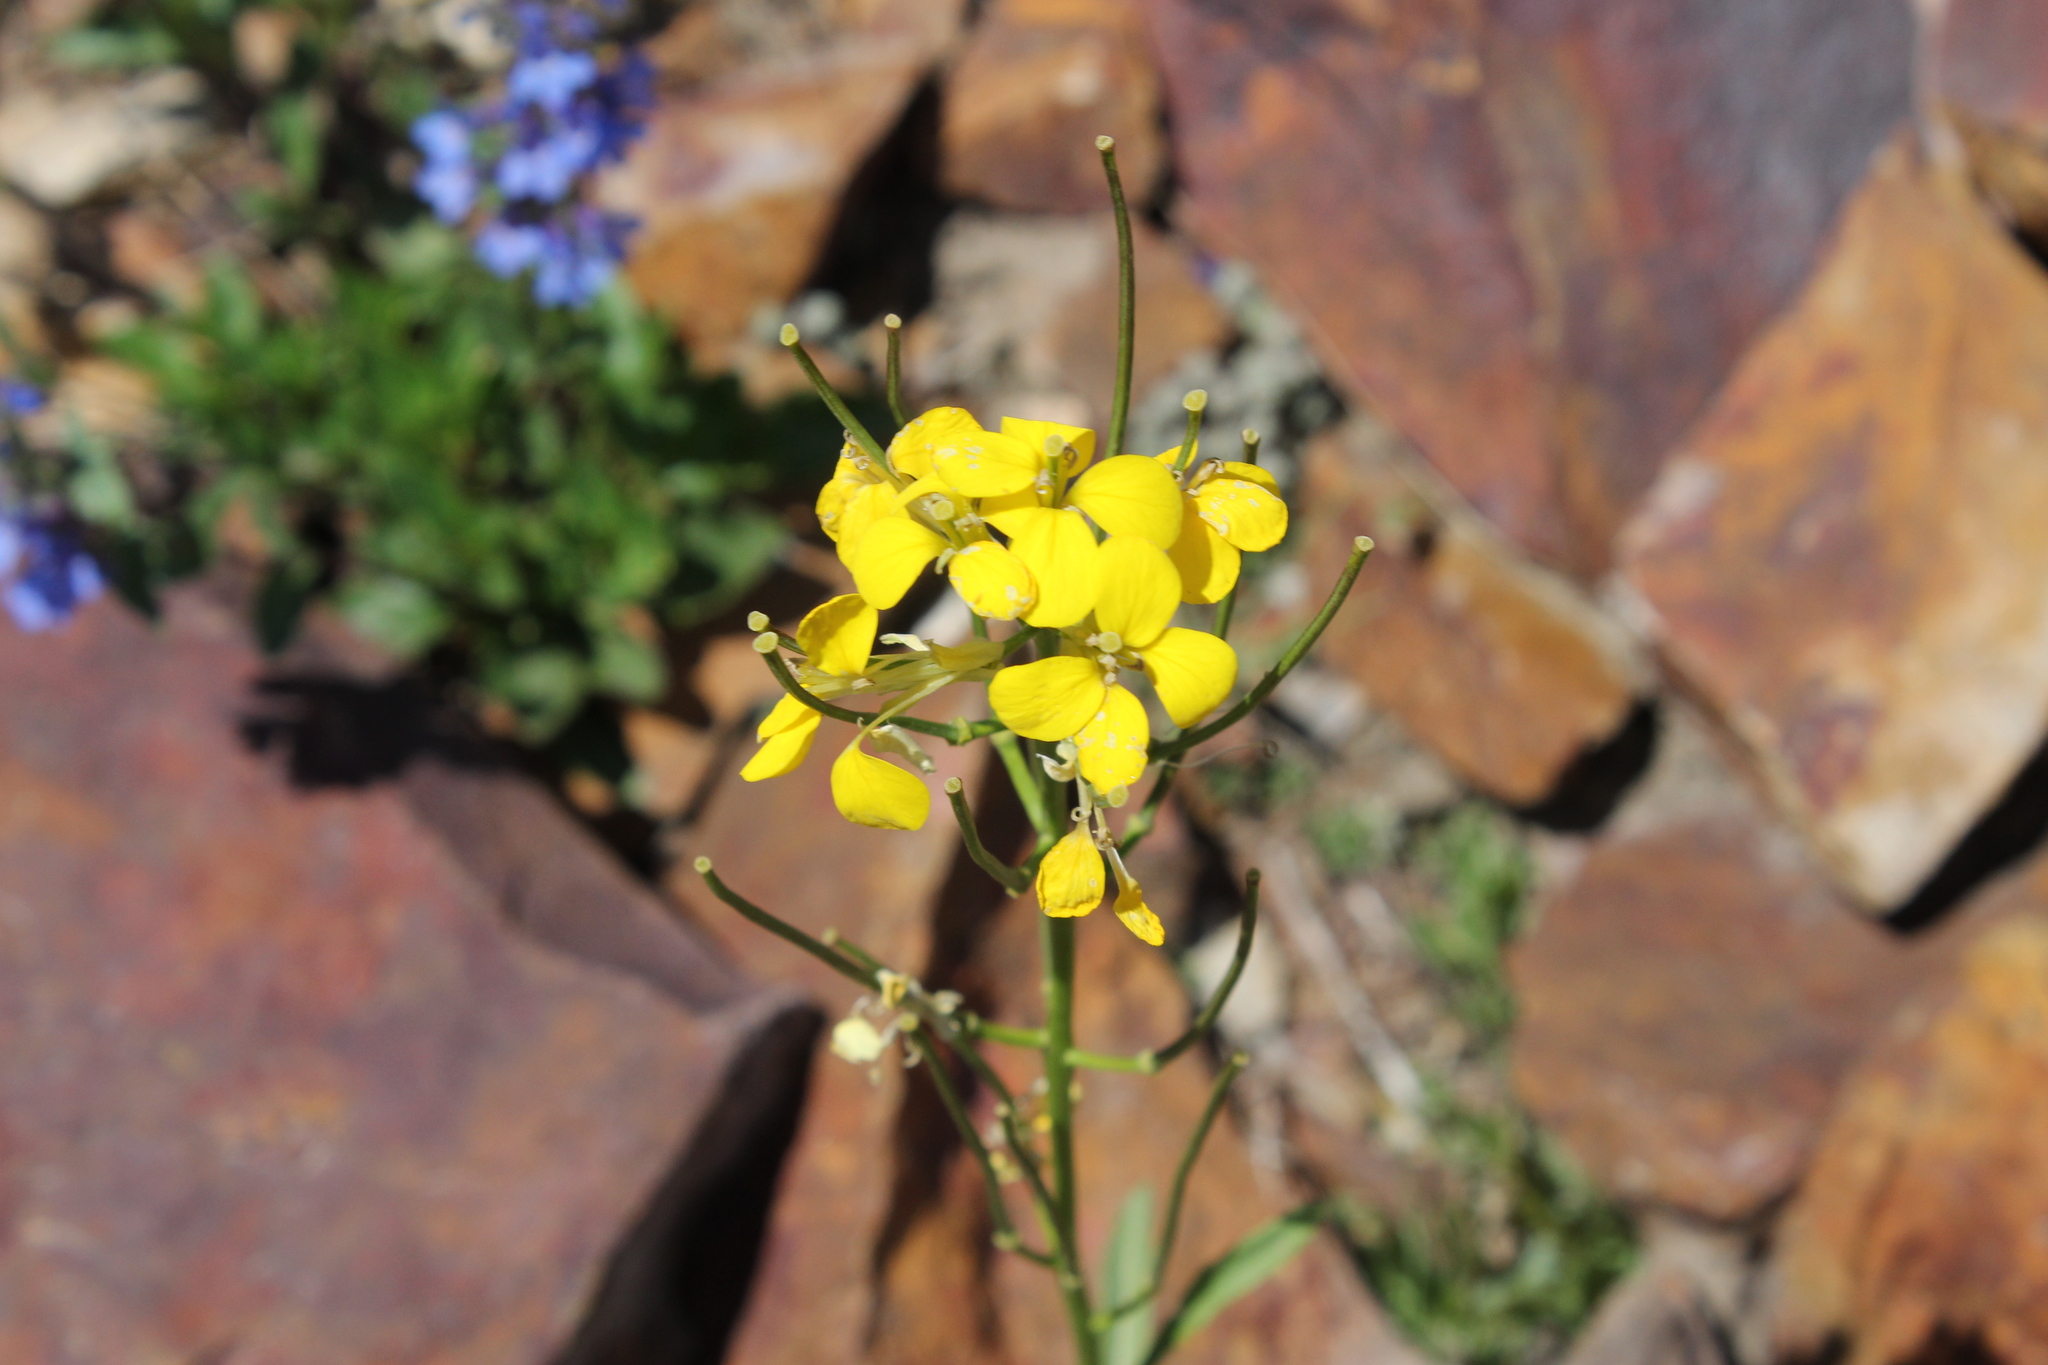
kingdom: Plantae
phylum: Tracheophyta
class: Magnoliopsida
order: Brassicales
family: Brassicaceae
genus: Erysimum
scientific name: Erysimum capitatum
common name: Western wallflower
